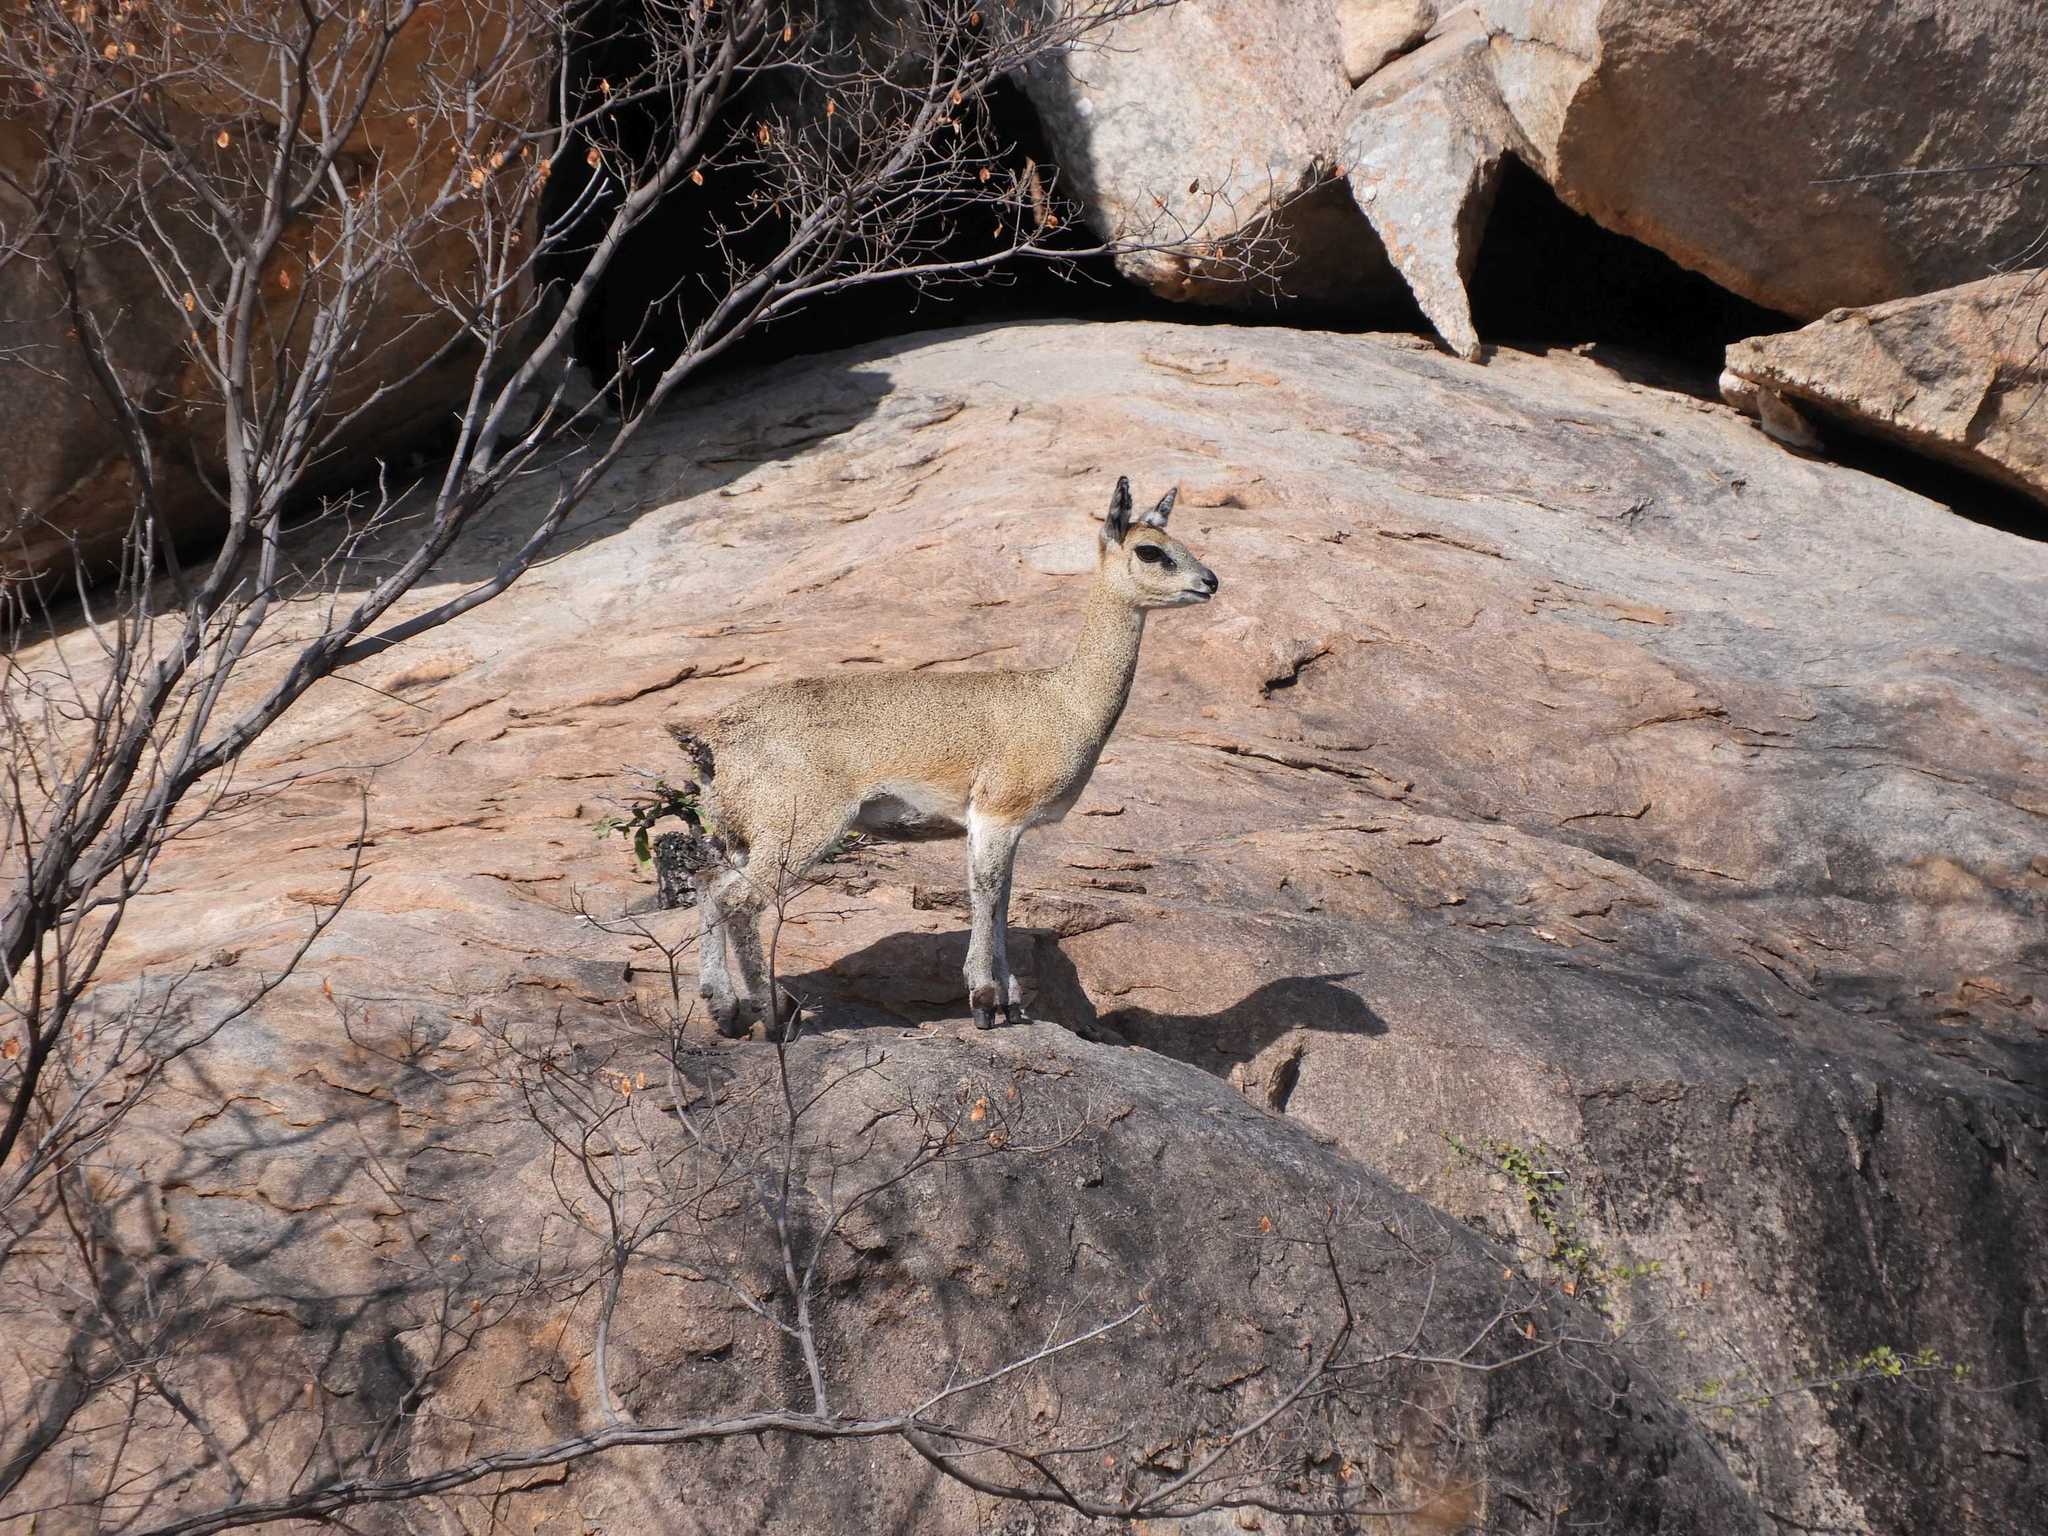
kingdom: Animalia
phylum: Chordata
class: Mammalia
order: Artiodactyla
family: Bovidae
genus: Oreotragus
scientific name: Oreotragus oreotragus
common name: Klipspringer
